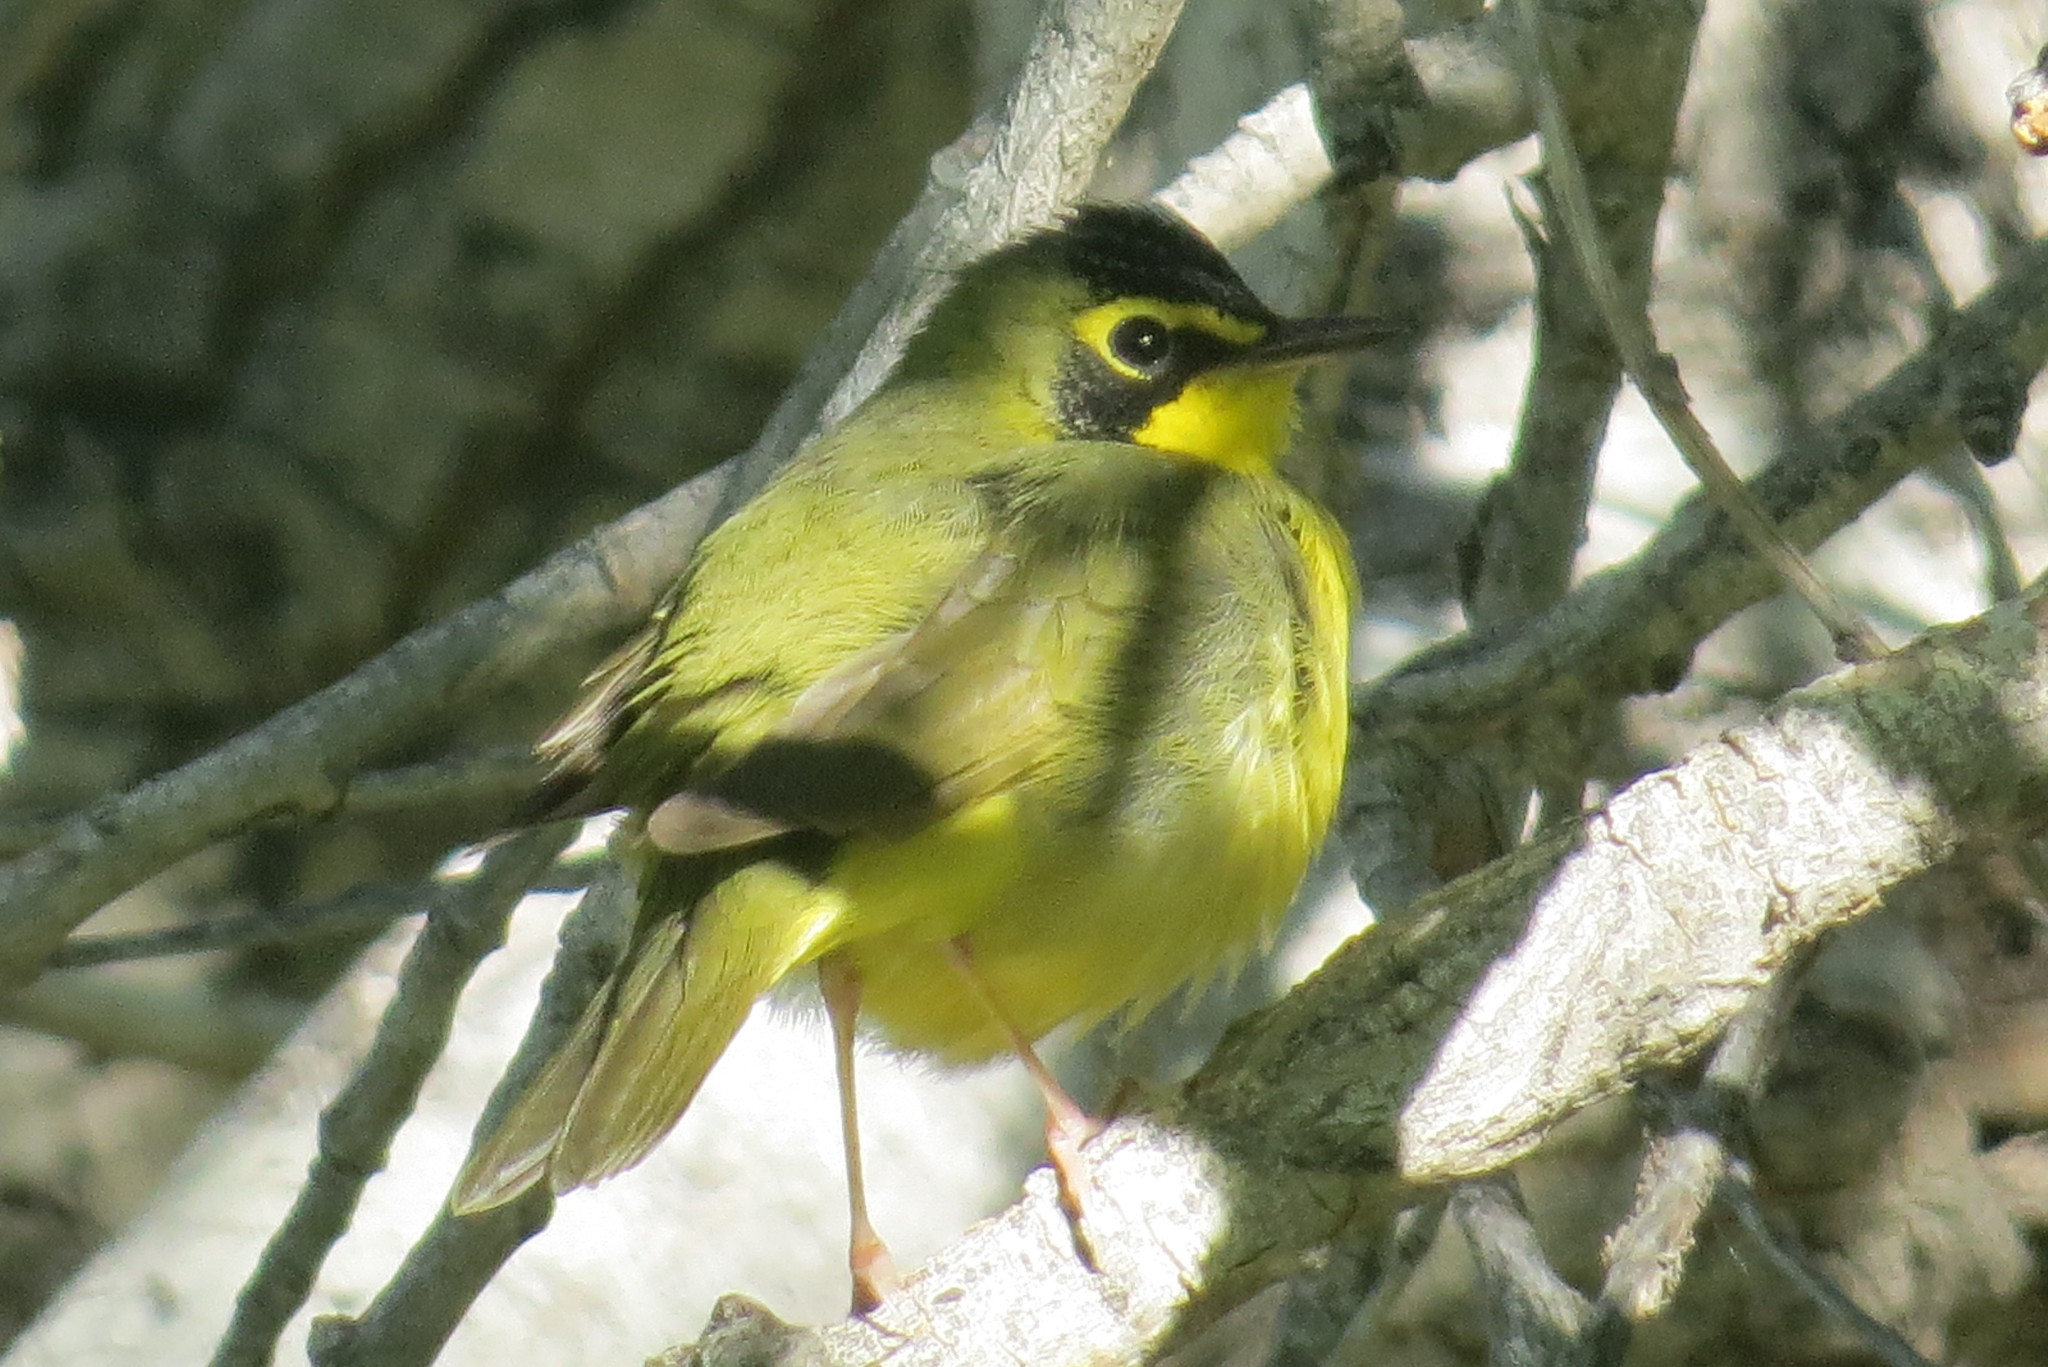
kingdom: Animalia
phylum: Chordata
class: Aves
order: Passeriformes
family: Parulidae
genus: Geothlypis
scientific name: Geothlypis formosa
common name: Kentucky warbler
